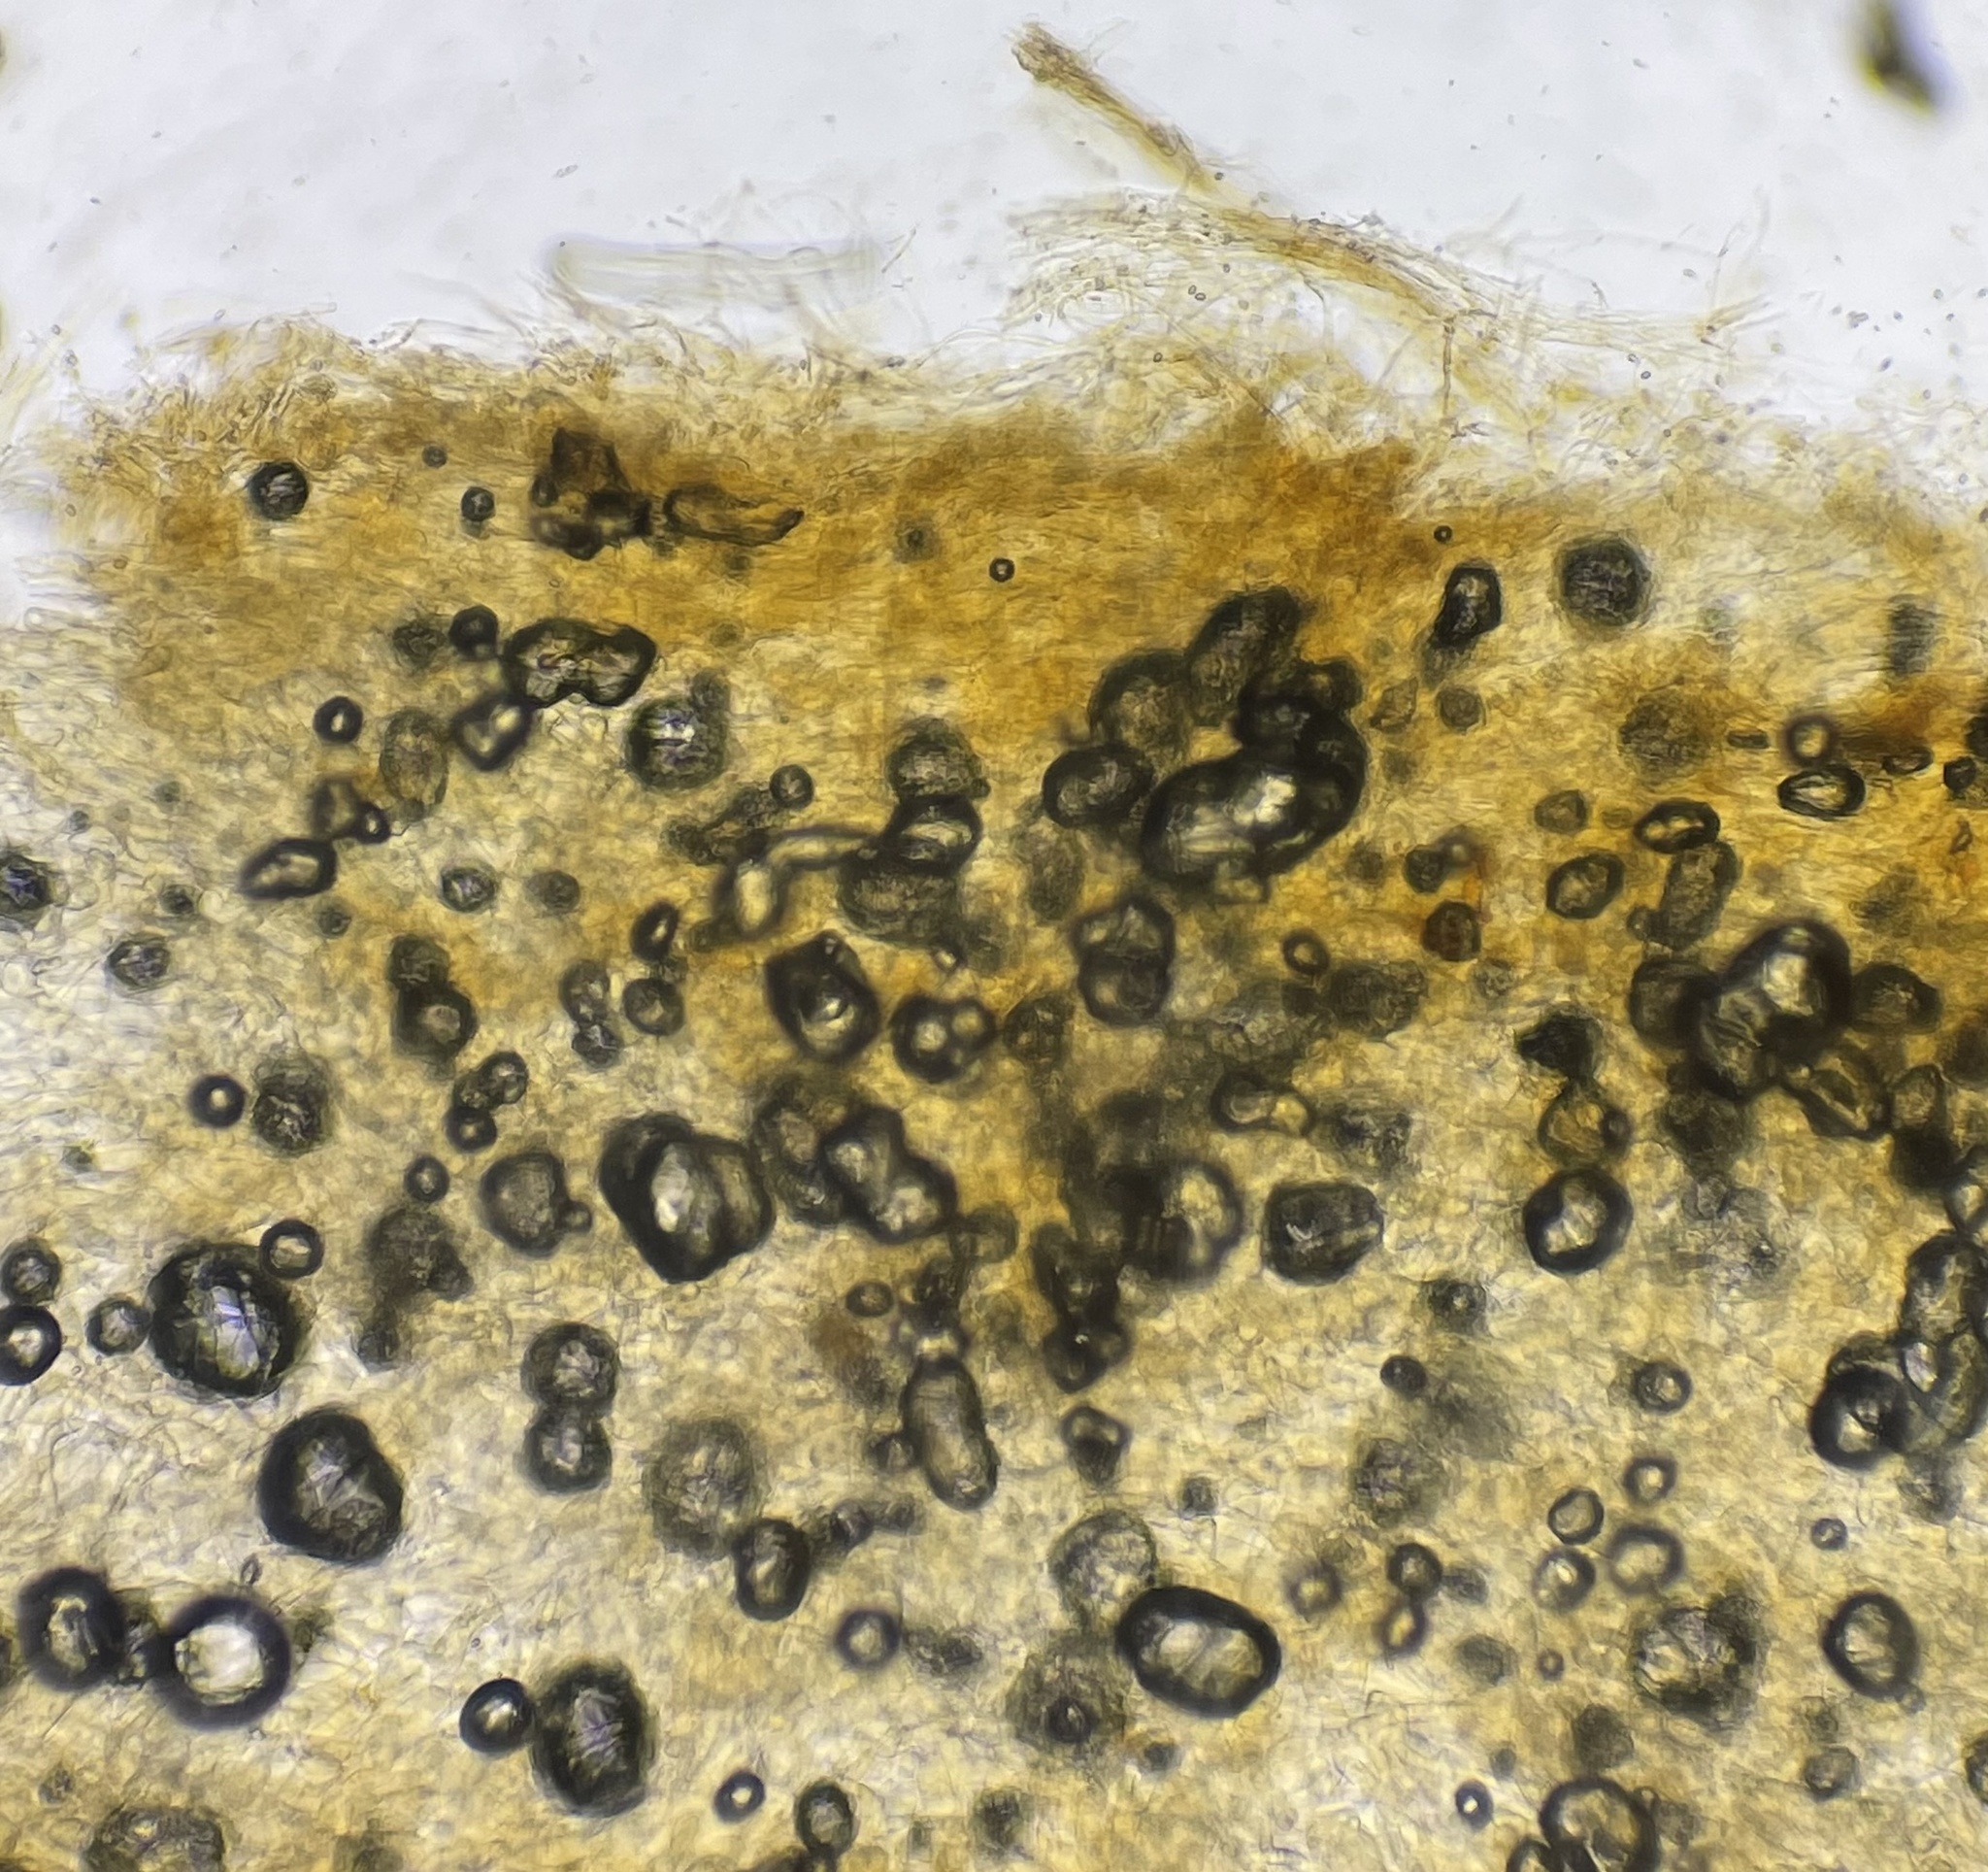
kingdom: Fungi
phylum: Basidiomycota
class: Agaricomycetes
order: Agaricales
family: Strophariaceae
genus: Pholiota
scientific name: Pholiota gummosa
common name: Sticky scalycap
